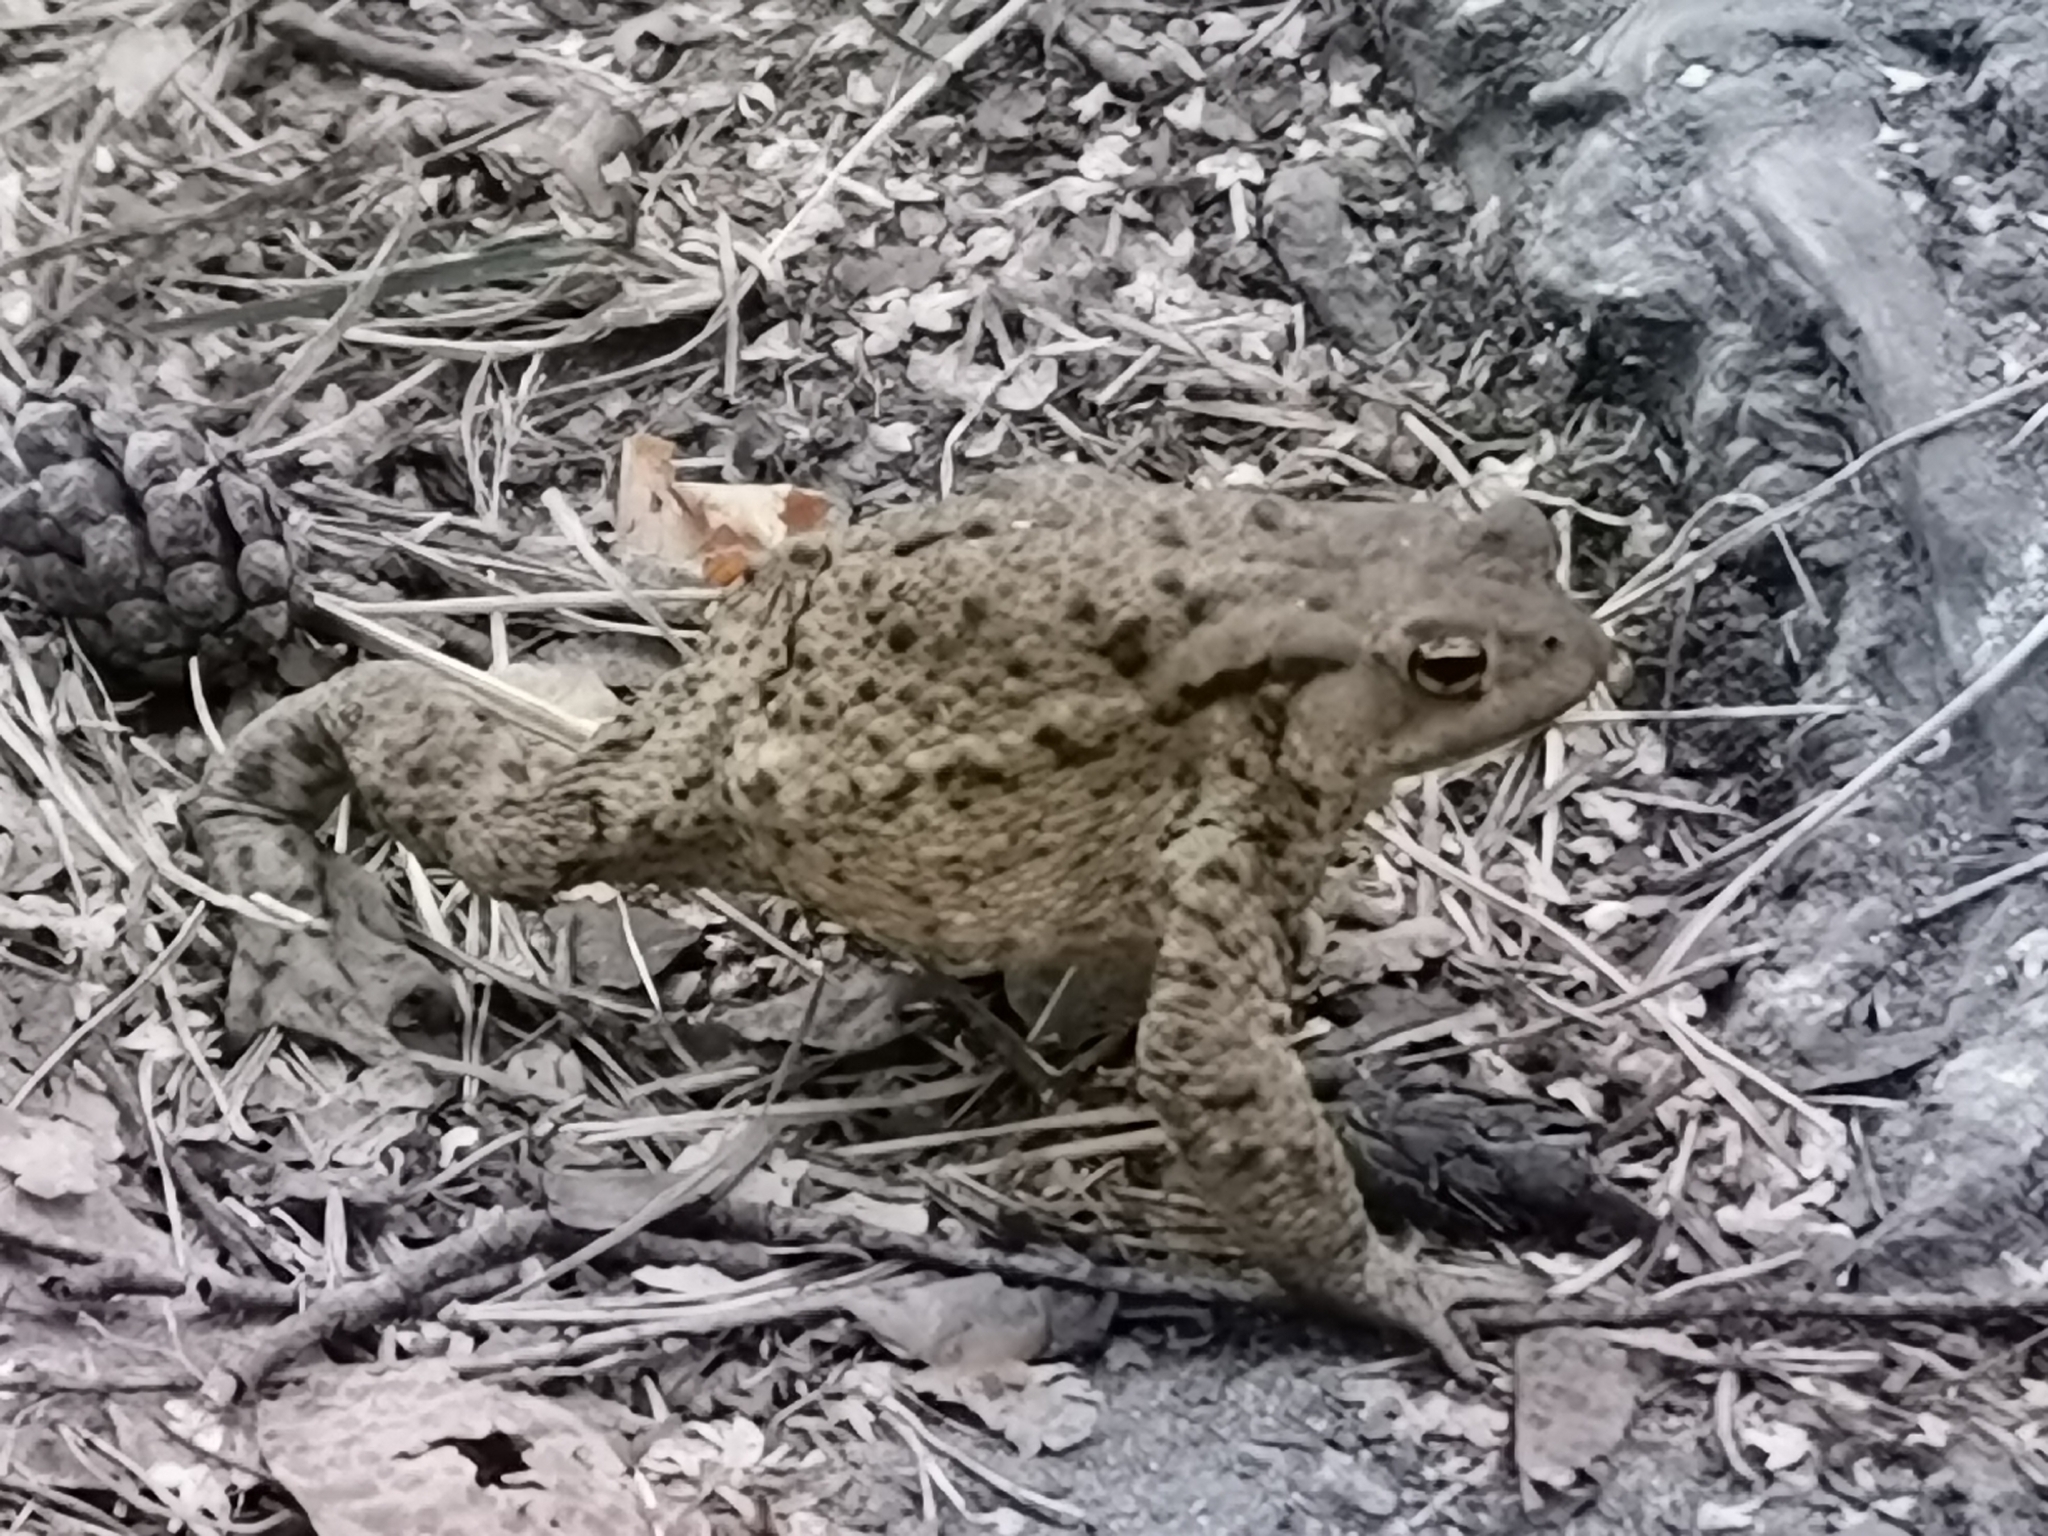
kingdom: Animalia
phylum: Chordata
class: Amphibia
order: Anura
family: Bufonidae
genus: Bufo
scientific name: Bufo bufo
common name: Common toad
